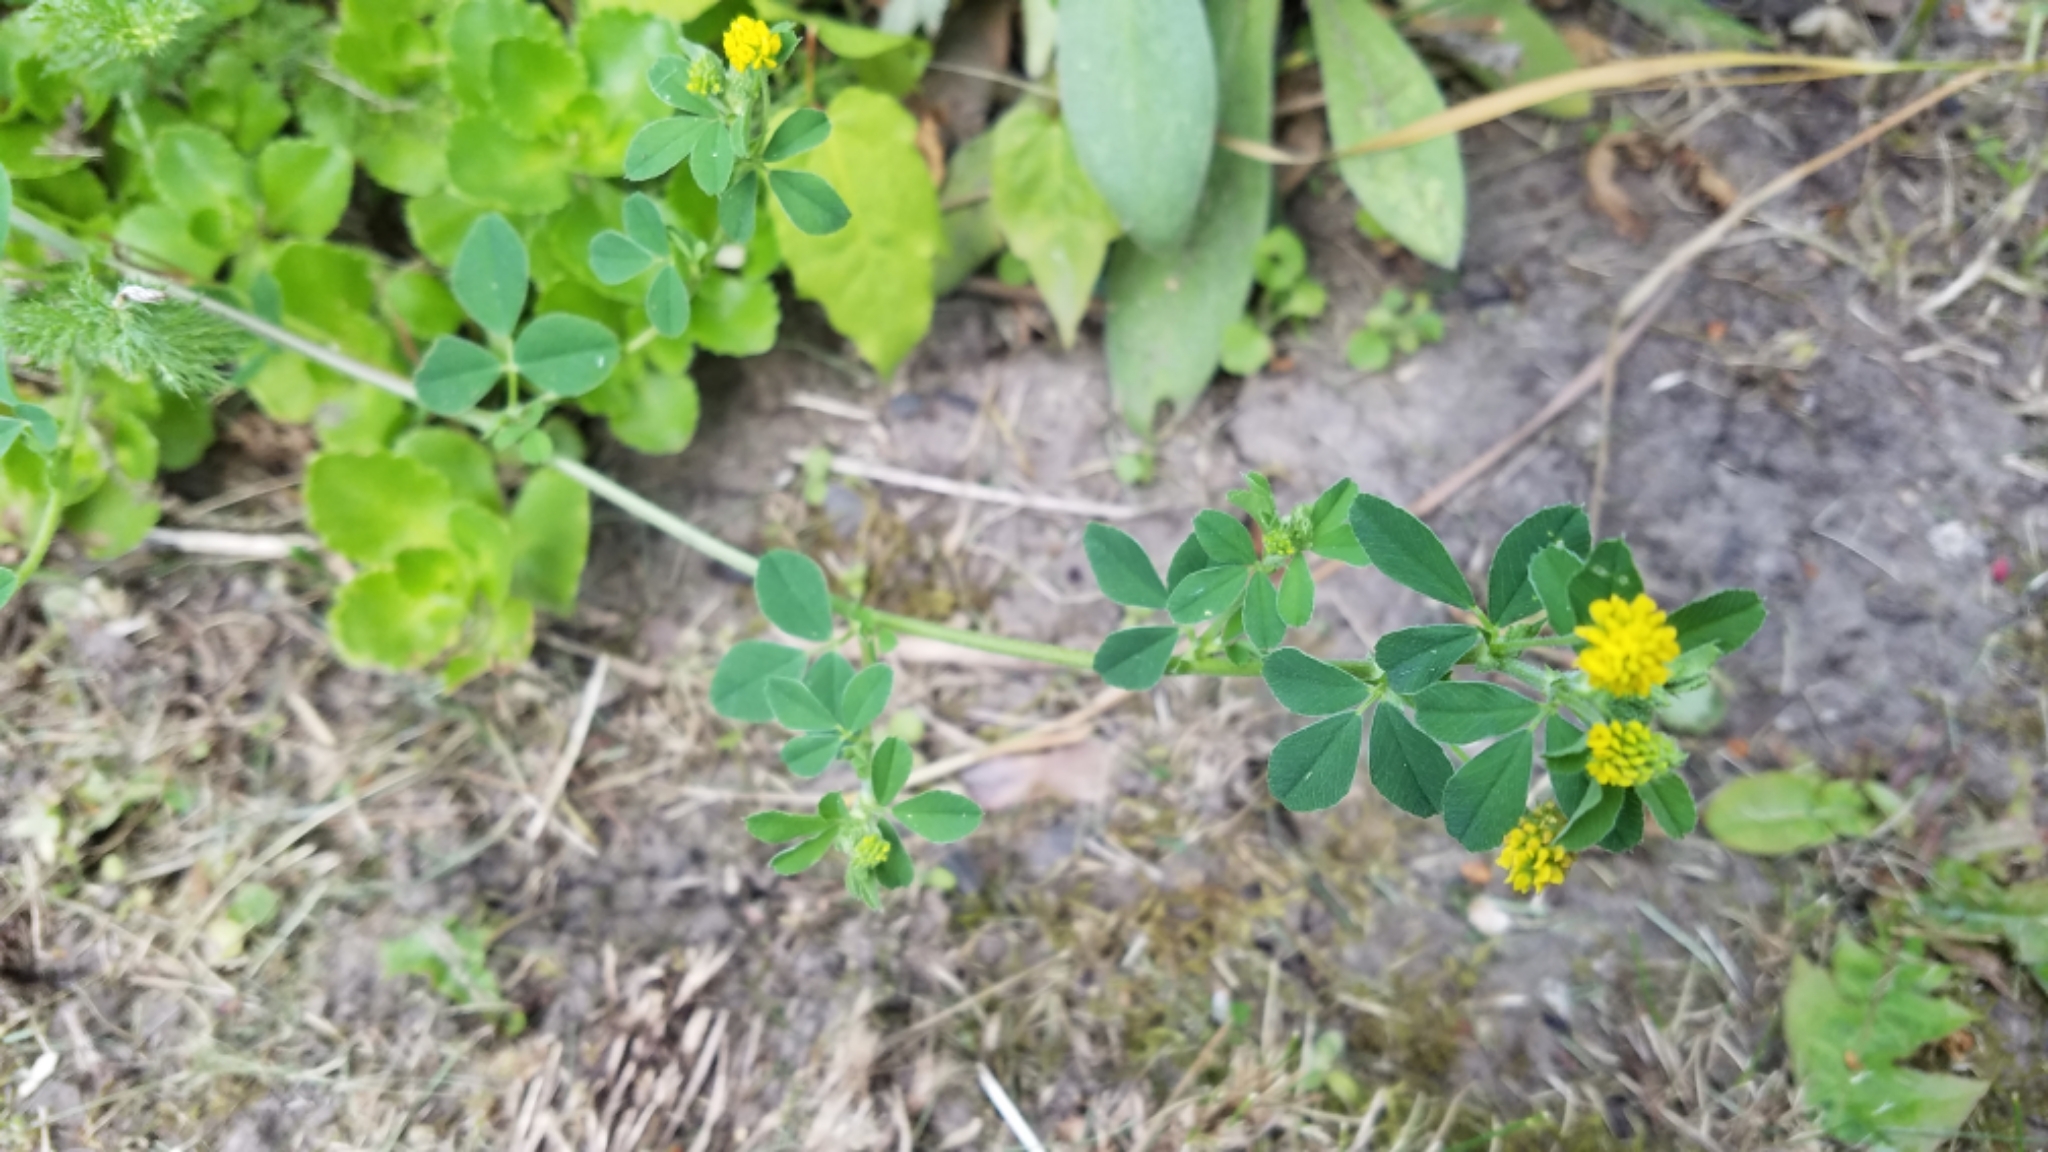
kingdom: Plantae
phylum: Tracheophyta
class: Magnoliopsida
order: Fabales
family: Fabaceae
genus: Medicago
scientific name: Medicago lupulina
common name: Black medick
